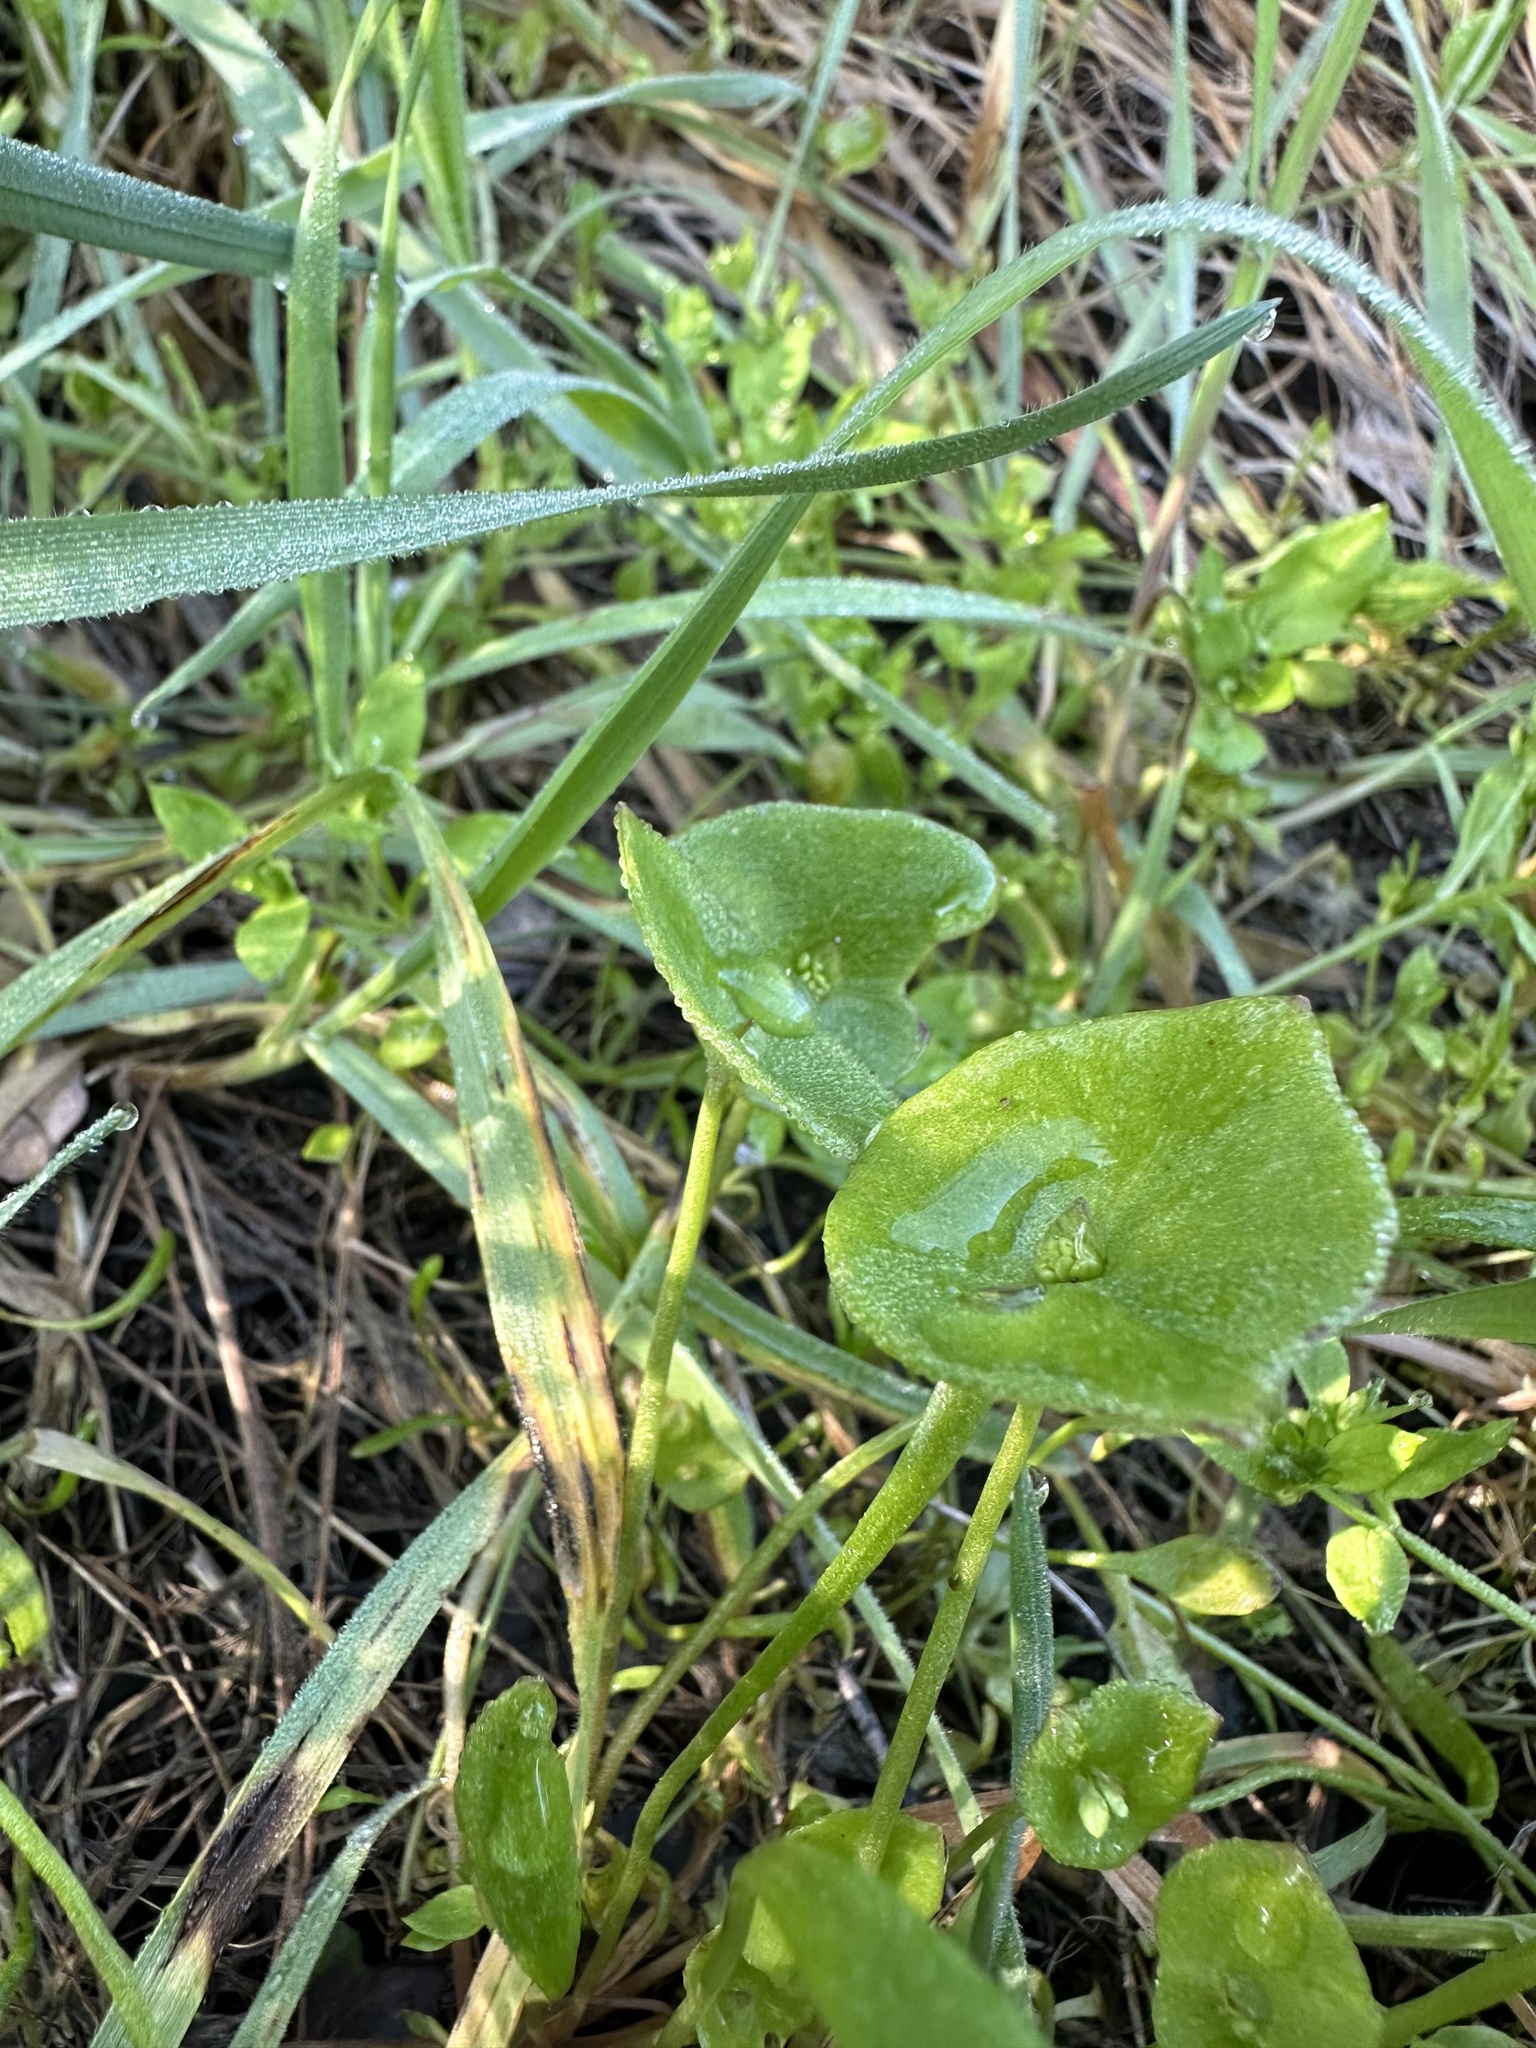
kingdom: Plantae
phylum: Tracheophyta
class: Magnoliopsida
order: Caryophyllales
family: Montiaceae
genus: Claytonia
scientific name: Claytonia perfoliata
